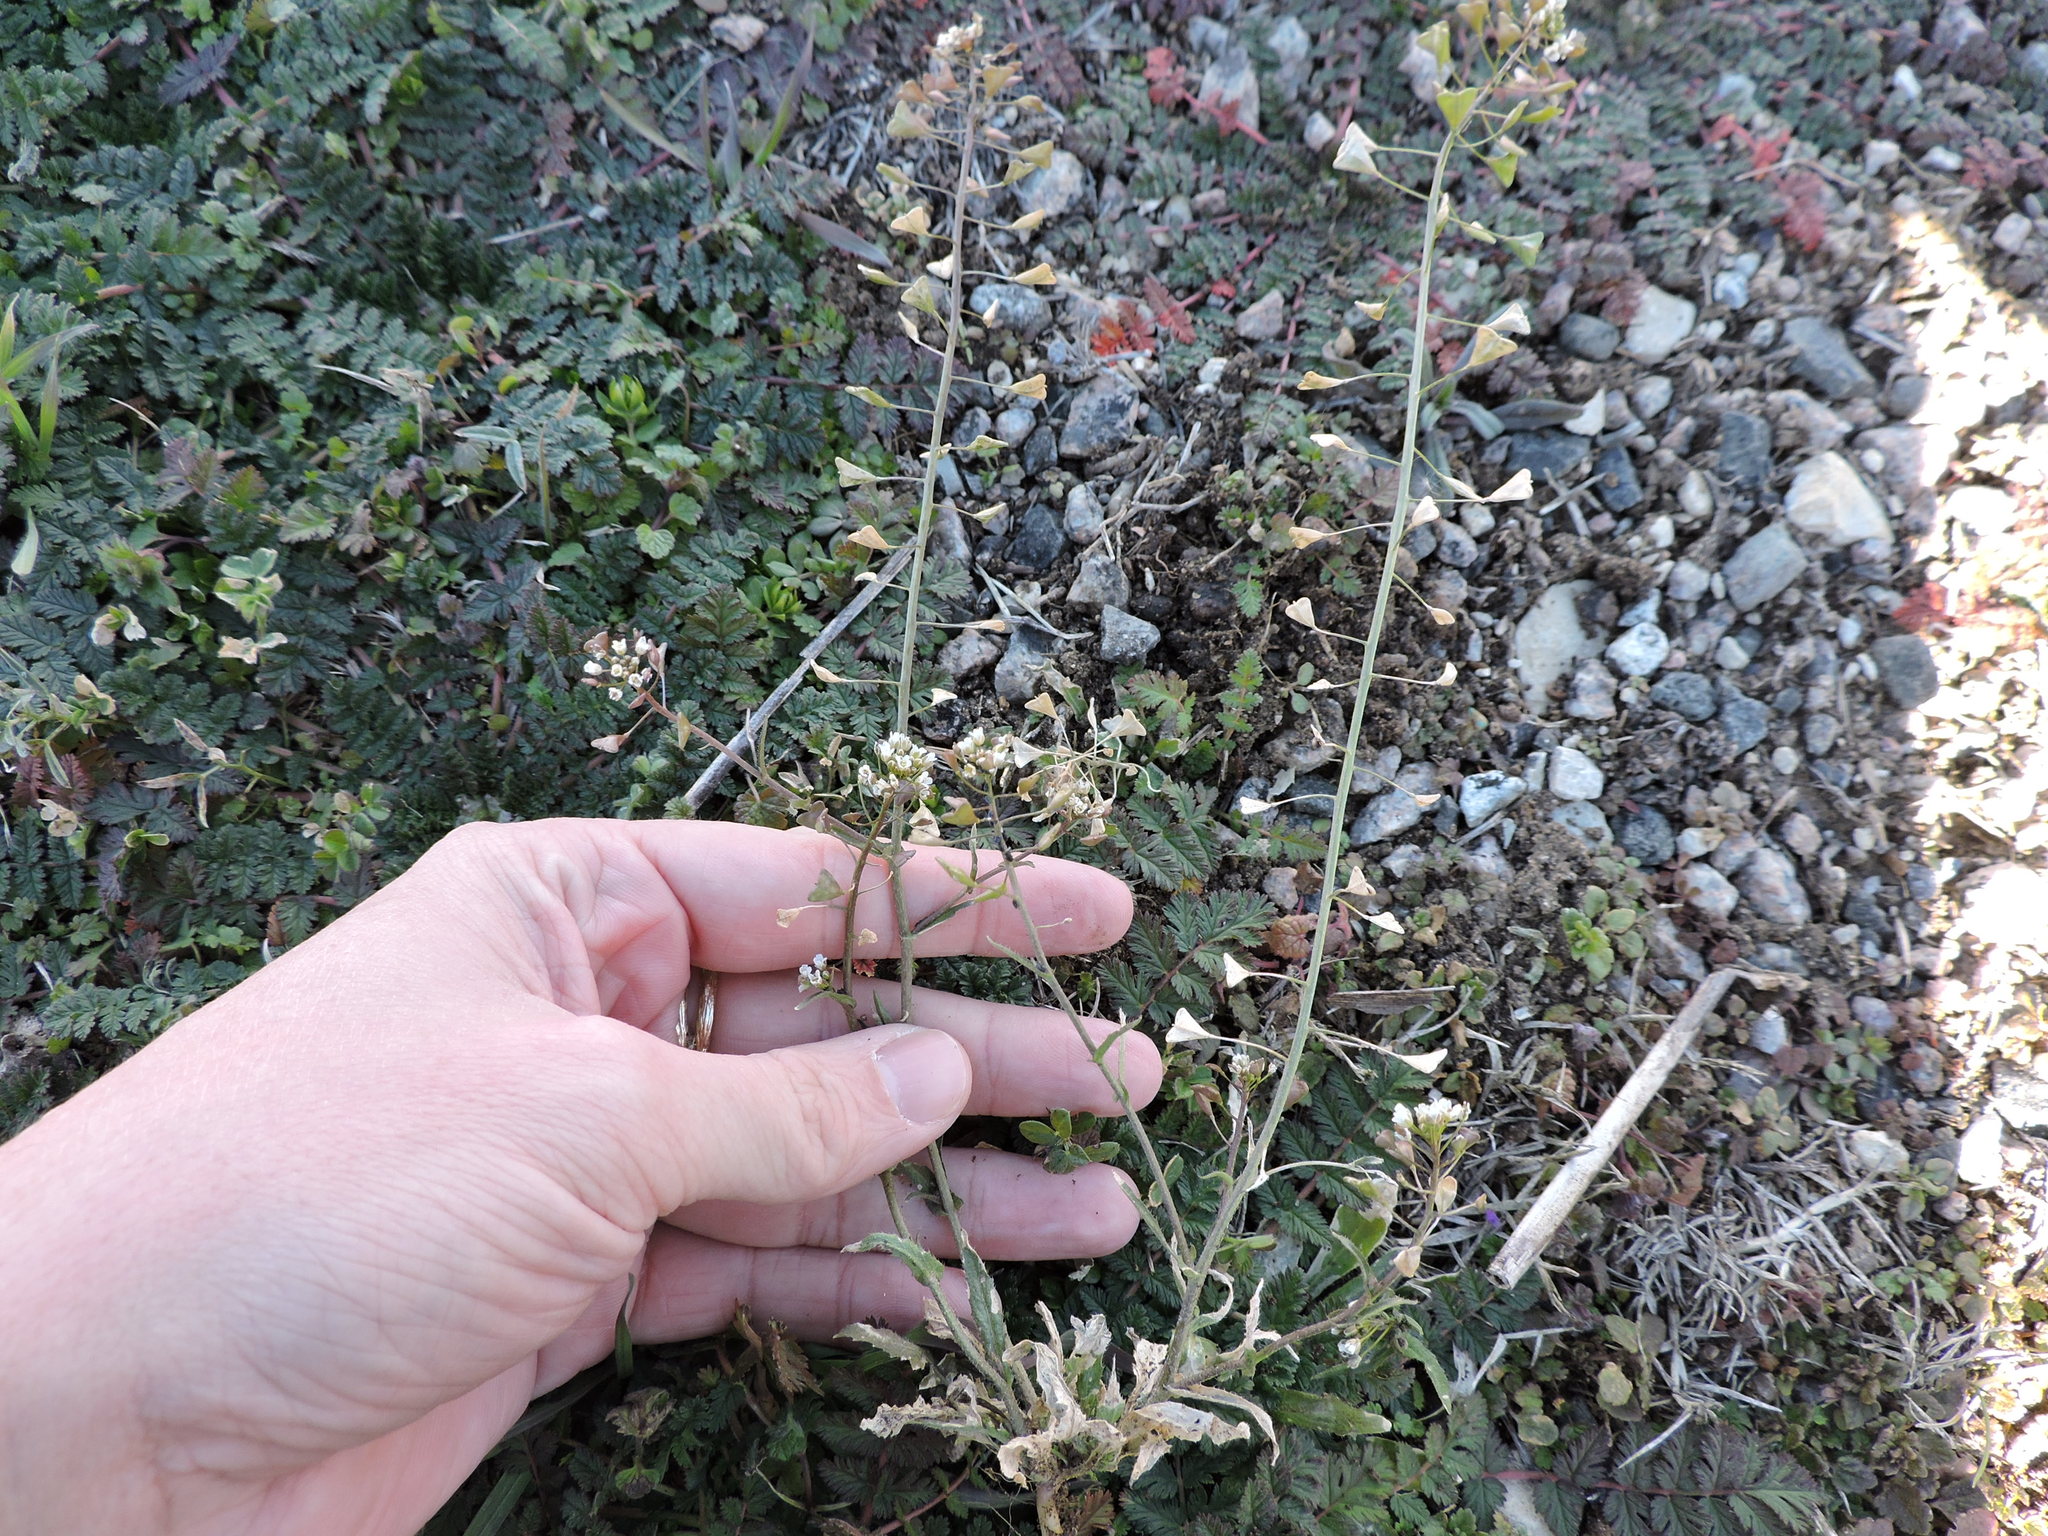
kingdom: Plantae
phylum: Tracheophyta
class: Magnoliopsida
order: Brassicales
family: Brassicaceae
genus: Capsella
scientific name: Capsella bursa-pastoris
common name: Shepherd's purse
